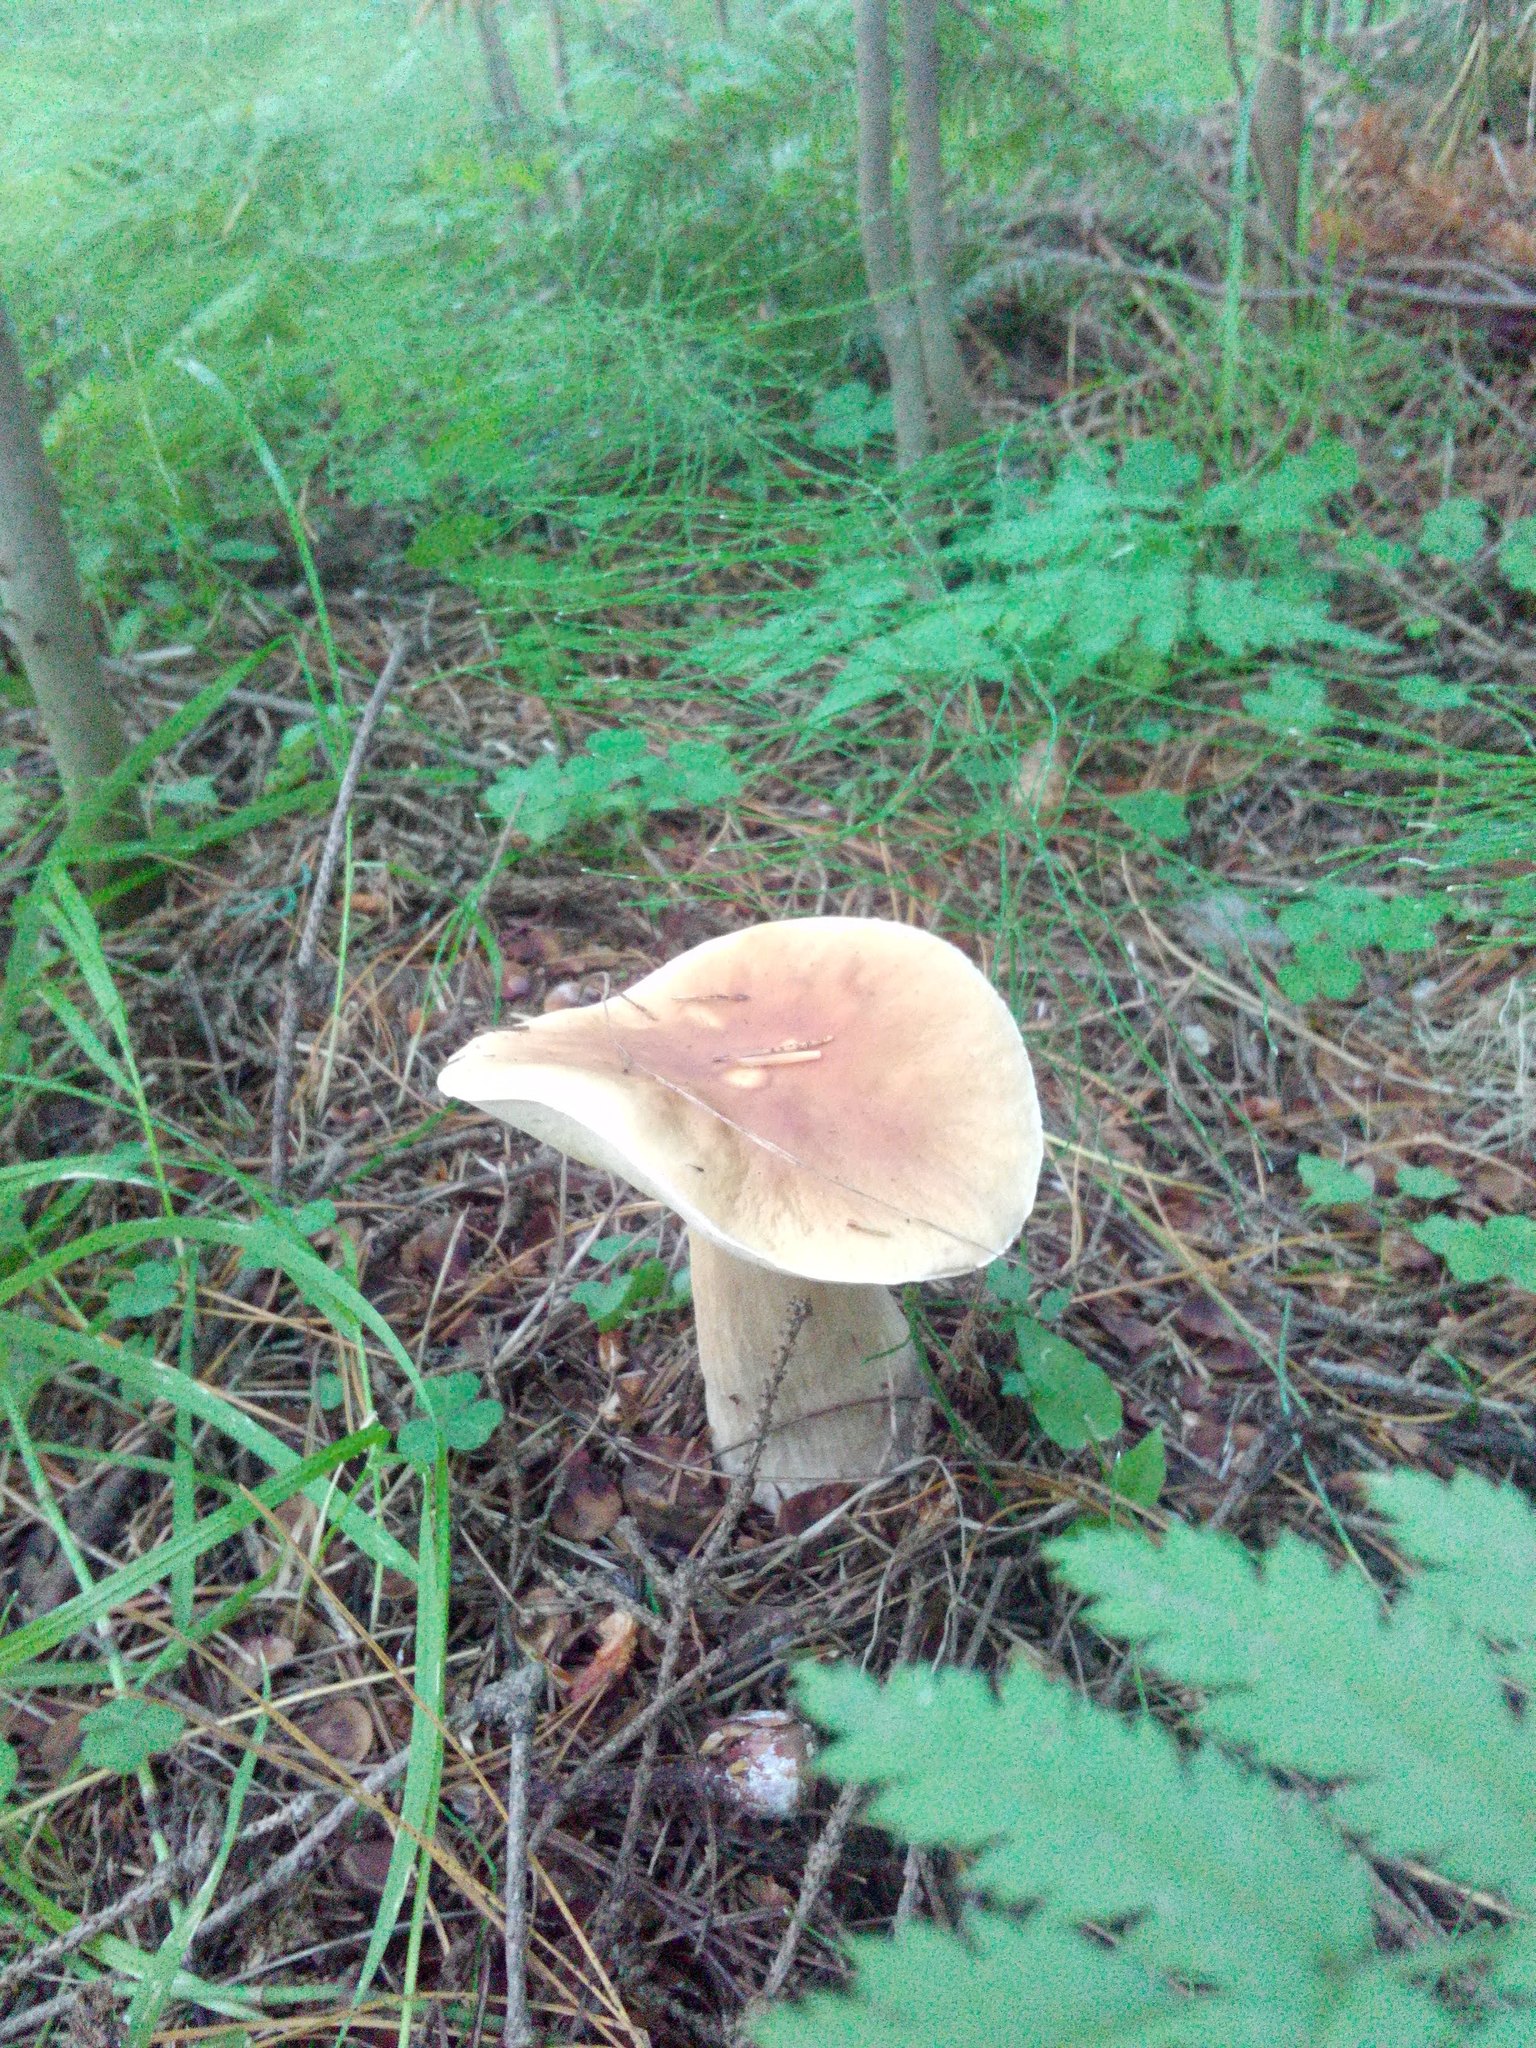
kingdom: Fungi
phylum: Basidiomycota
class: Agaricomycetes
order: Boletales
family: Boletaceae
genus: Boletus
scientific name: Boletus edulis
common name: Cep
